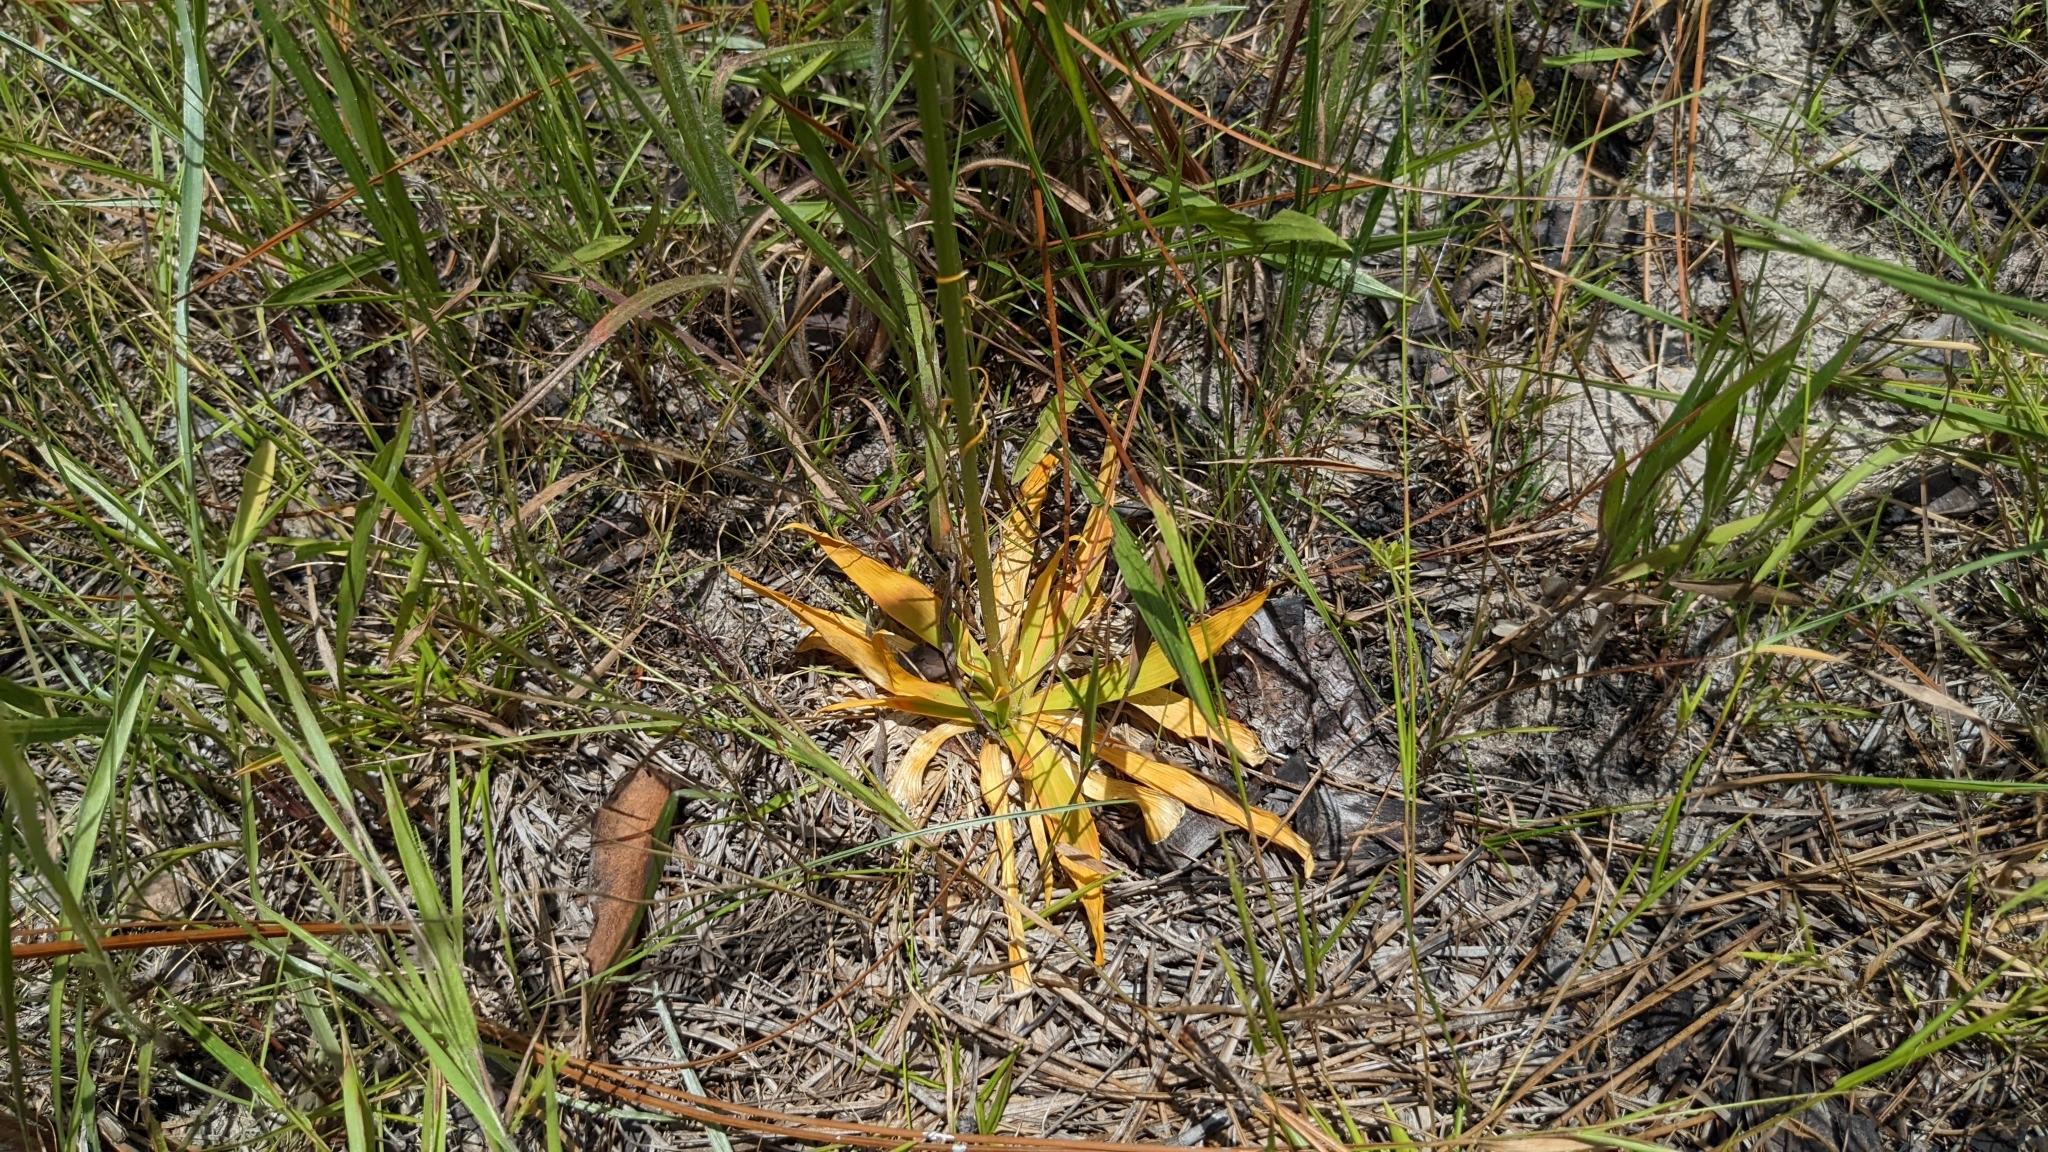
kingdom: Plantae
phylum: Tracheophyta
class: Liliopsida
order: Dioscoreales
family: Nartheciaceae
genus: Aletris
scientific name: Aletris aurea
